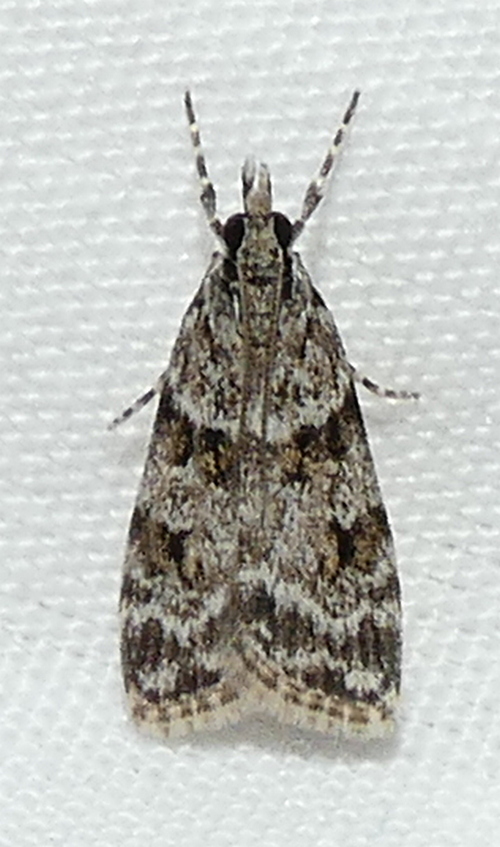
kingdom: Animalia
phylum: Arthropoda
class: Insecta
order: Lepidoptera
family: Crambidae
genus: Scoparia
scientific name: Scoparia biplagialis
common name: Double-striped scoparia moth
